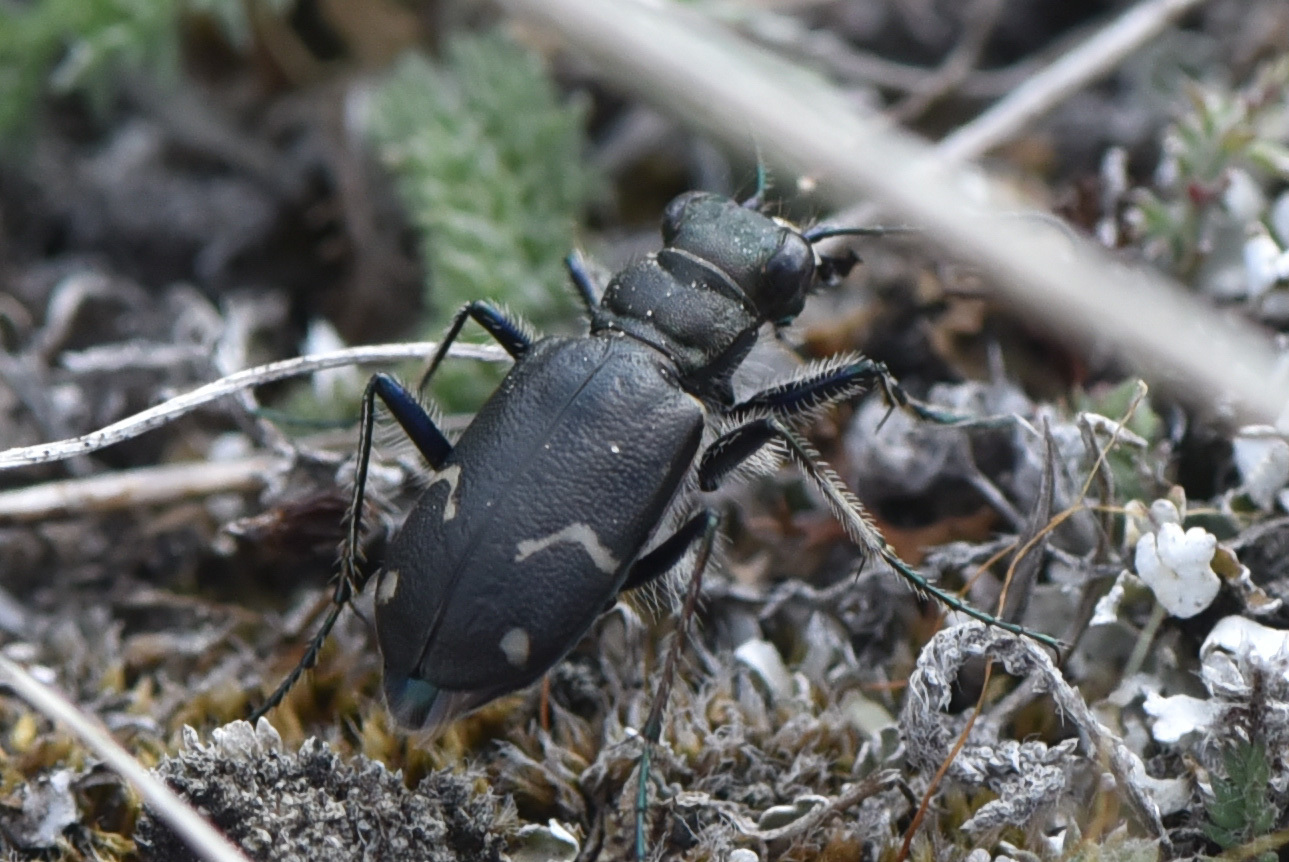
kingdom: Animalia
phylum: Arthropoda
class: Insecta
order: Coleoptera
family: Carabidae
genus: Cicindela
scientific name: Cicindela longilabris
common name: Boreal long-lipped tiger beetle
